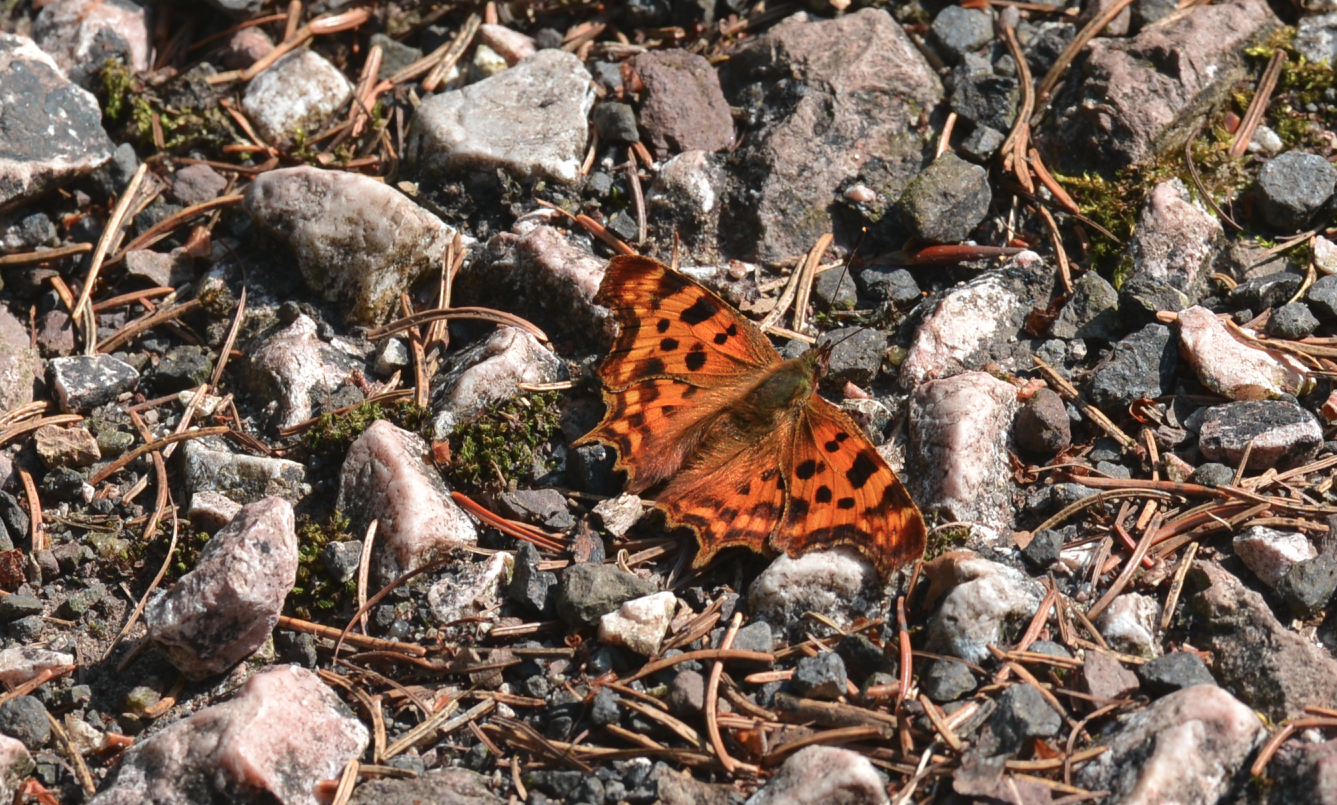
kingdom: Animalia
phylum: Arthropoda
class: Insecta
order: Lepidoptera
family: Nymphalidae
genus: Polygonia
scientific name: Polygonia c-album
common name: Comma
